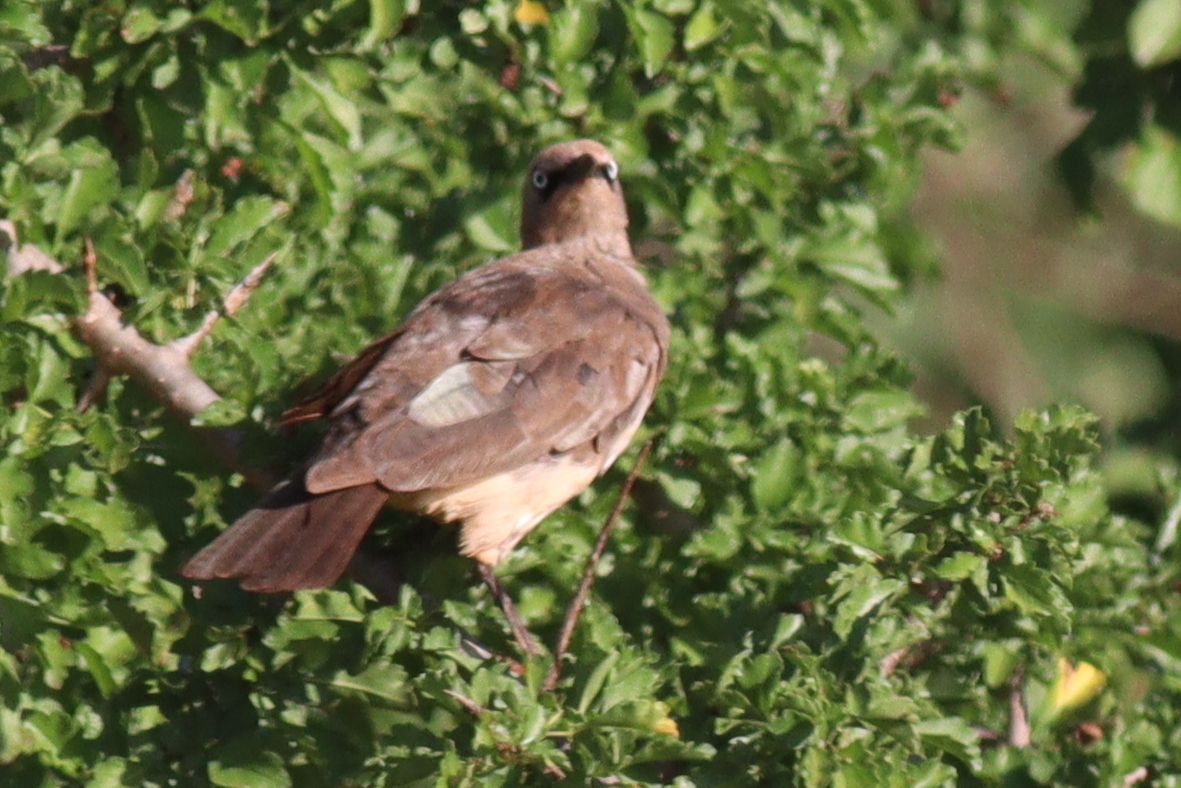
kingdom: Animalia
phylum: Chordata
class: Aves
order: Passeriformes
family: Sturnidae
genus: Lamprotornis
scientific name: Lamprotornis fischeri
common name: Fischer's starling
